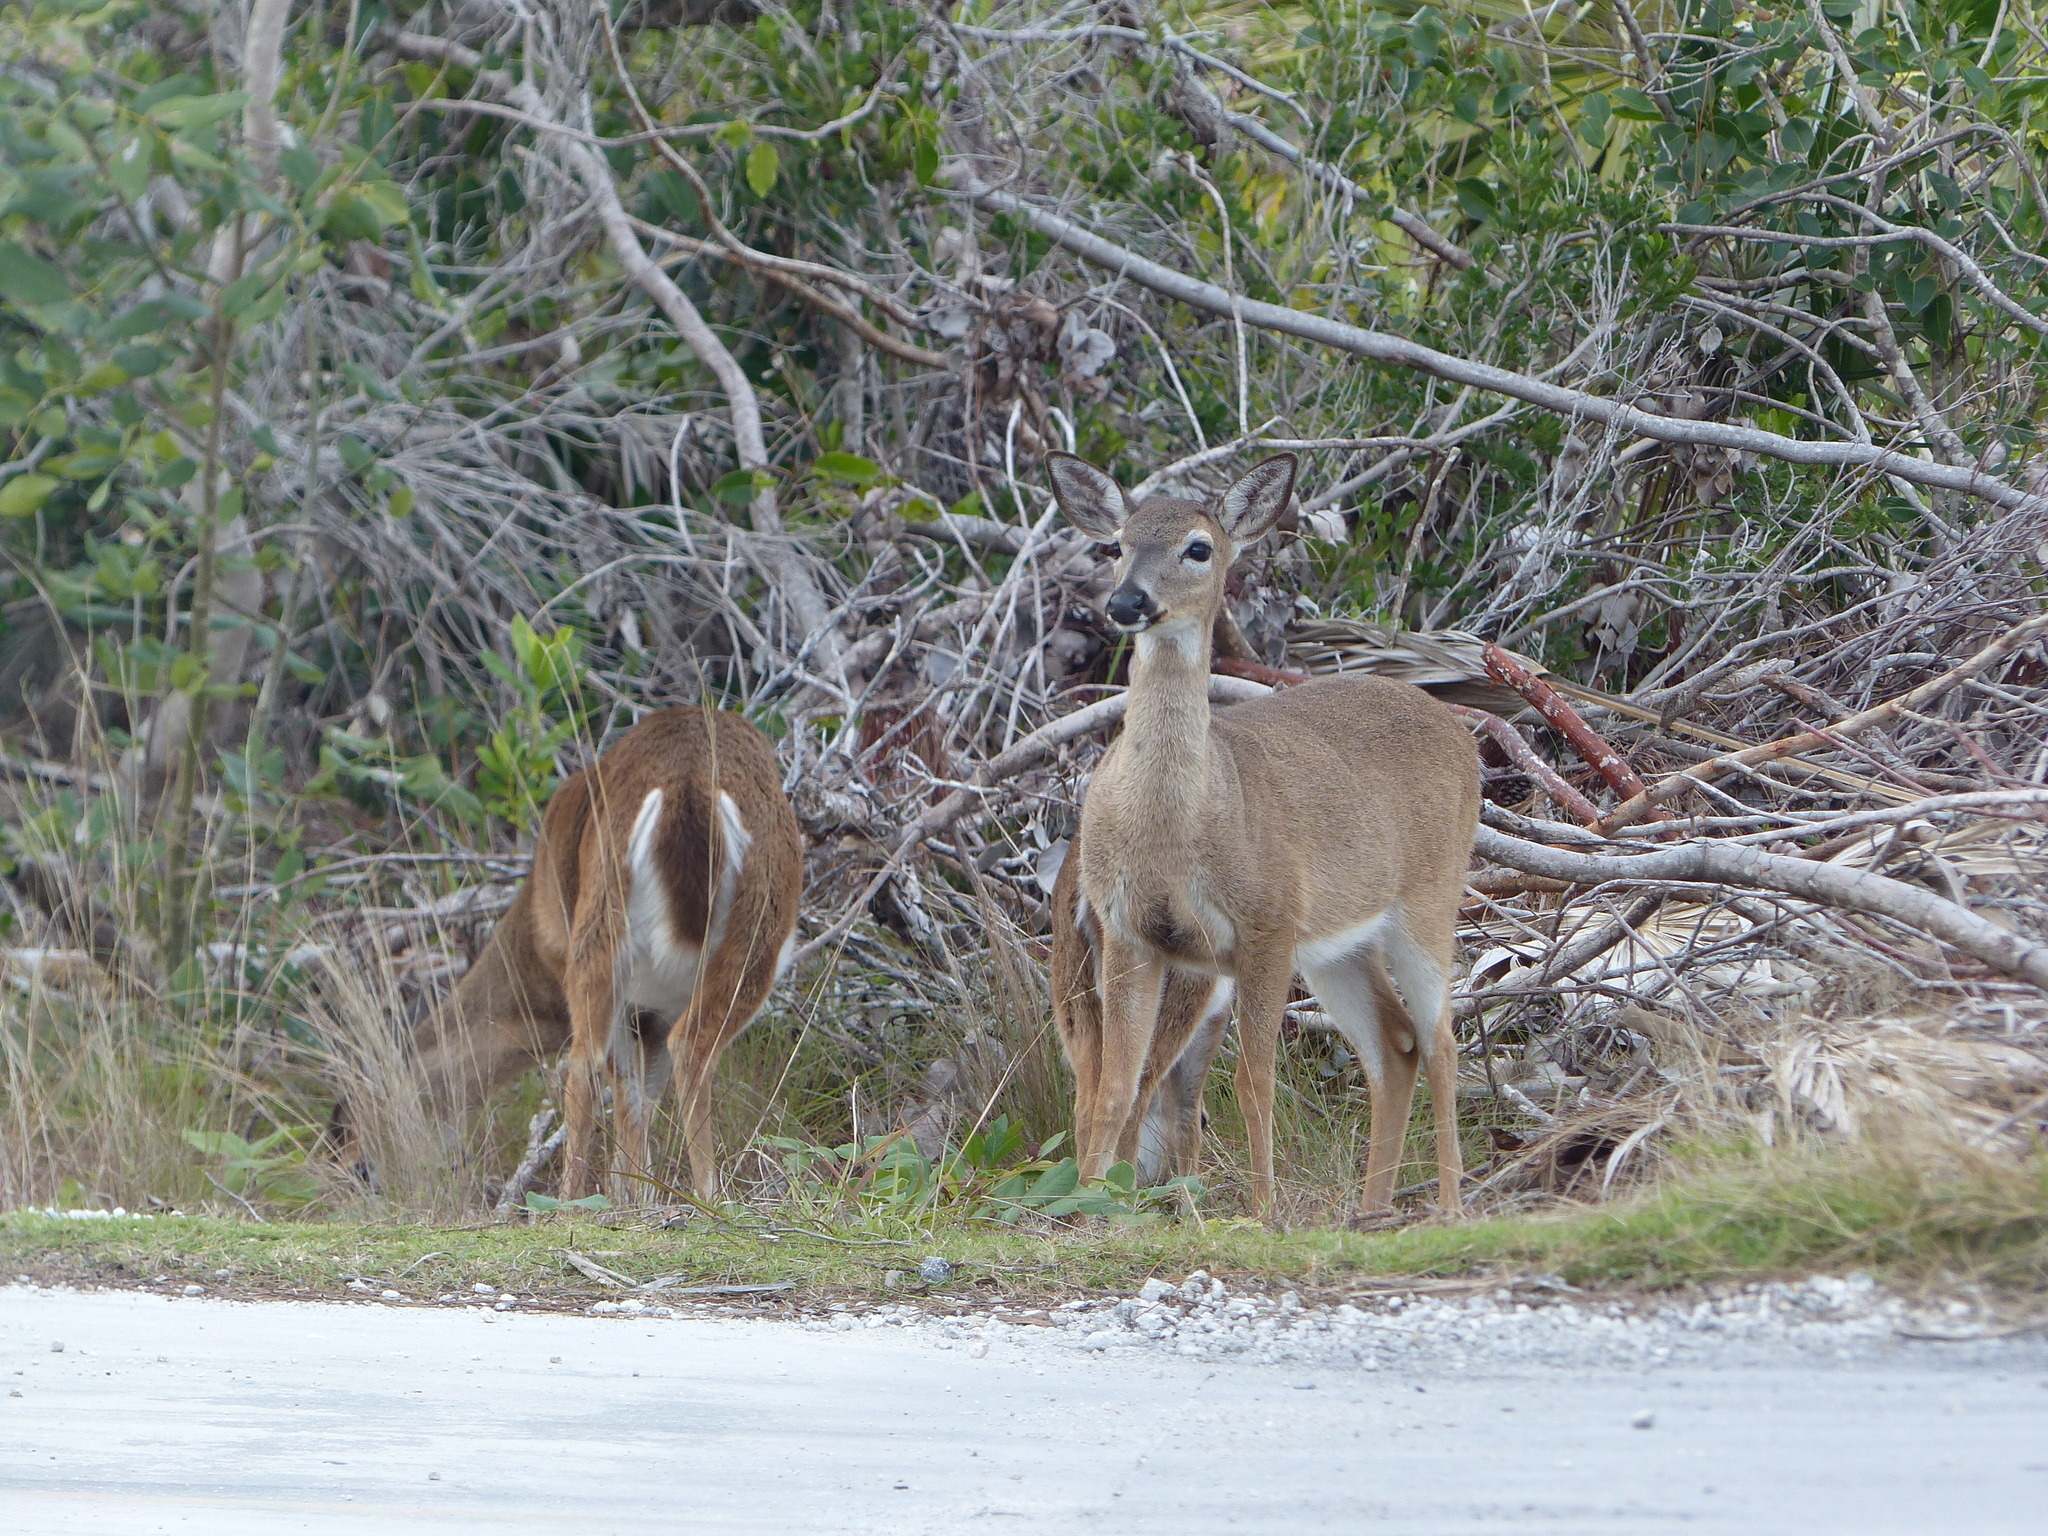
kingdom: Animalia
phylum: Chordata
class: Mammalia
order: Artiodactyla
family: Cervidae
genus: Odocoileus
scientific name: Odocoileus virginianus
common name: White-tailed deer
